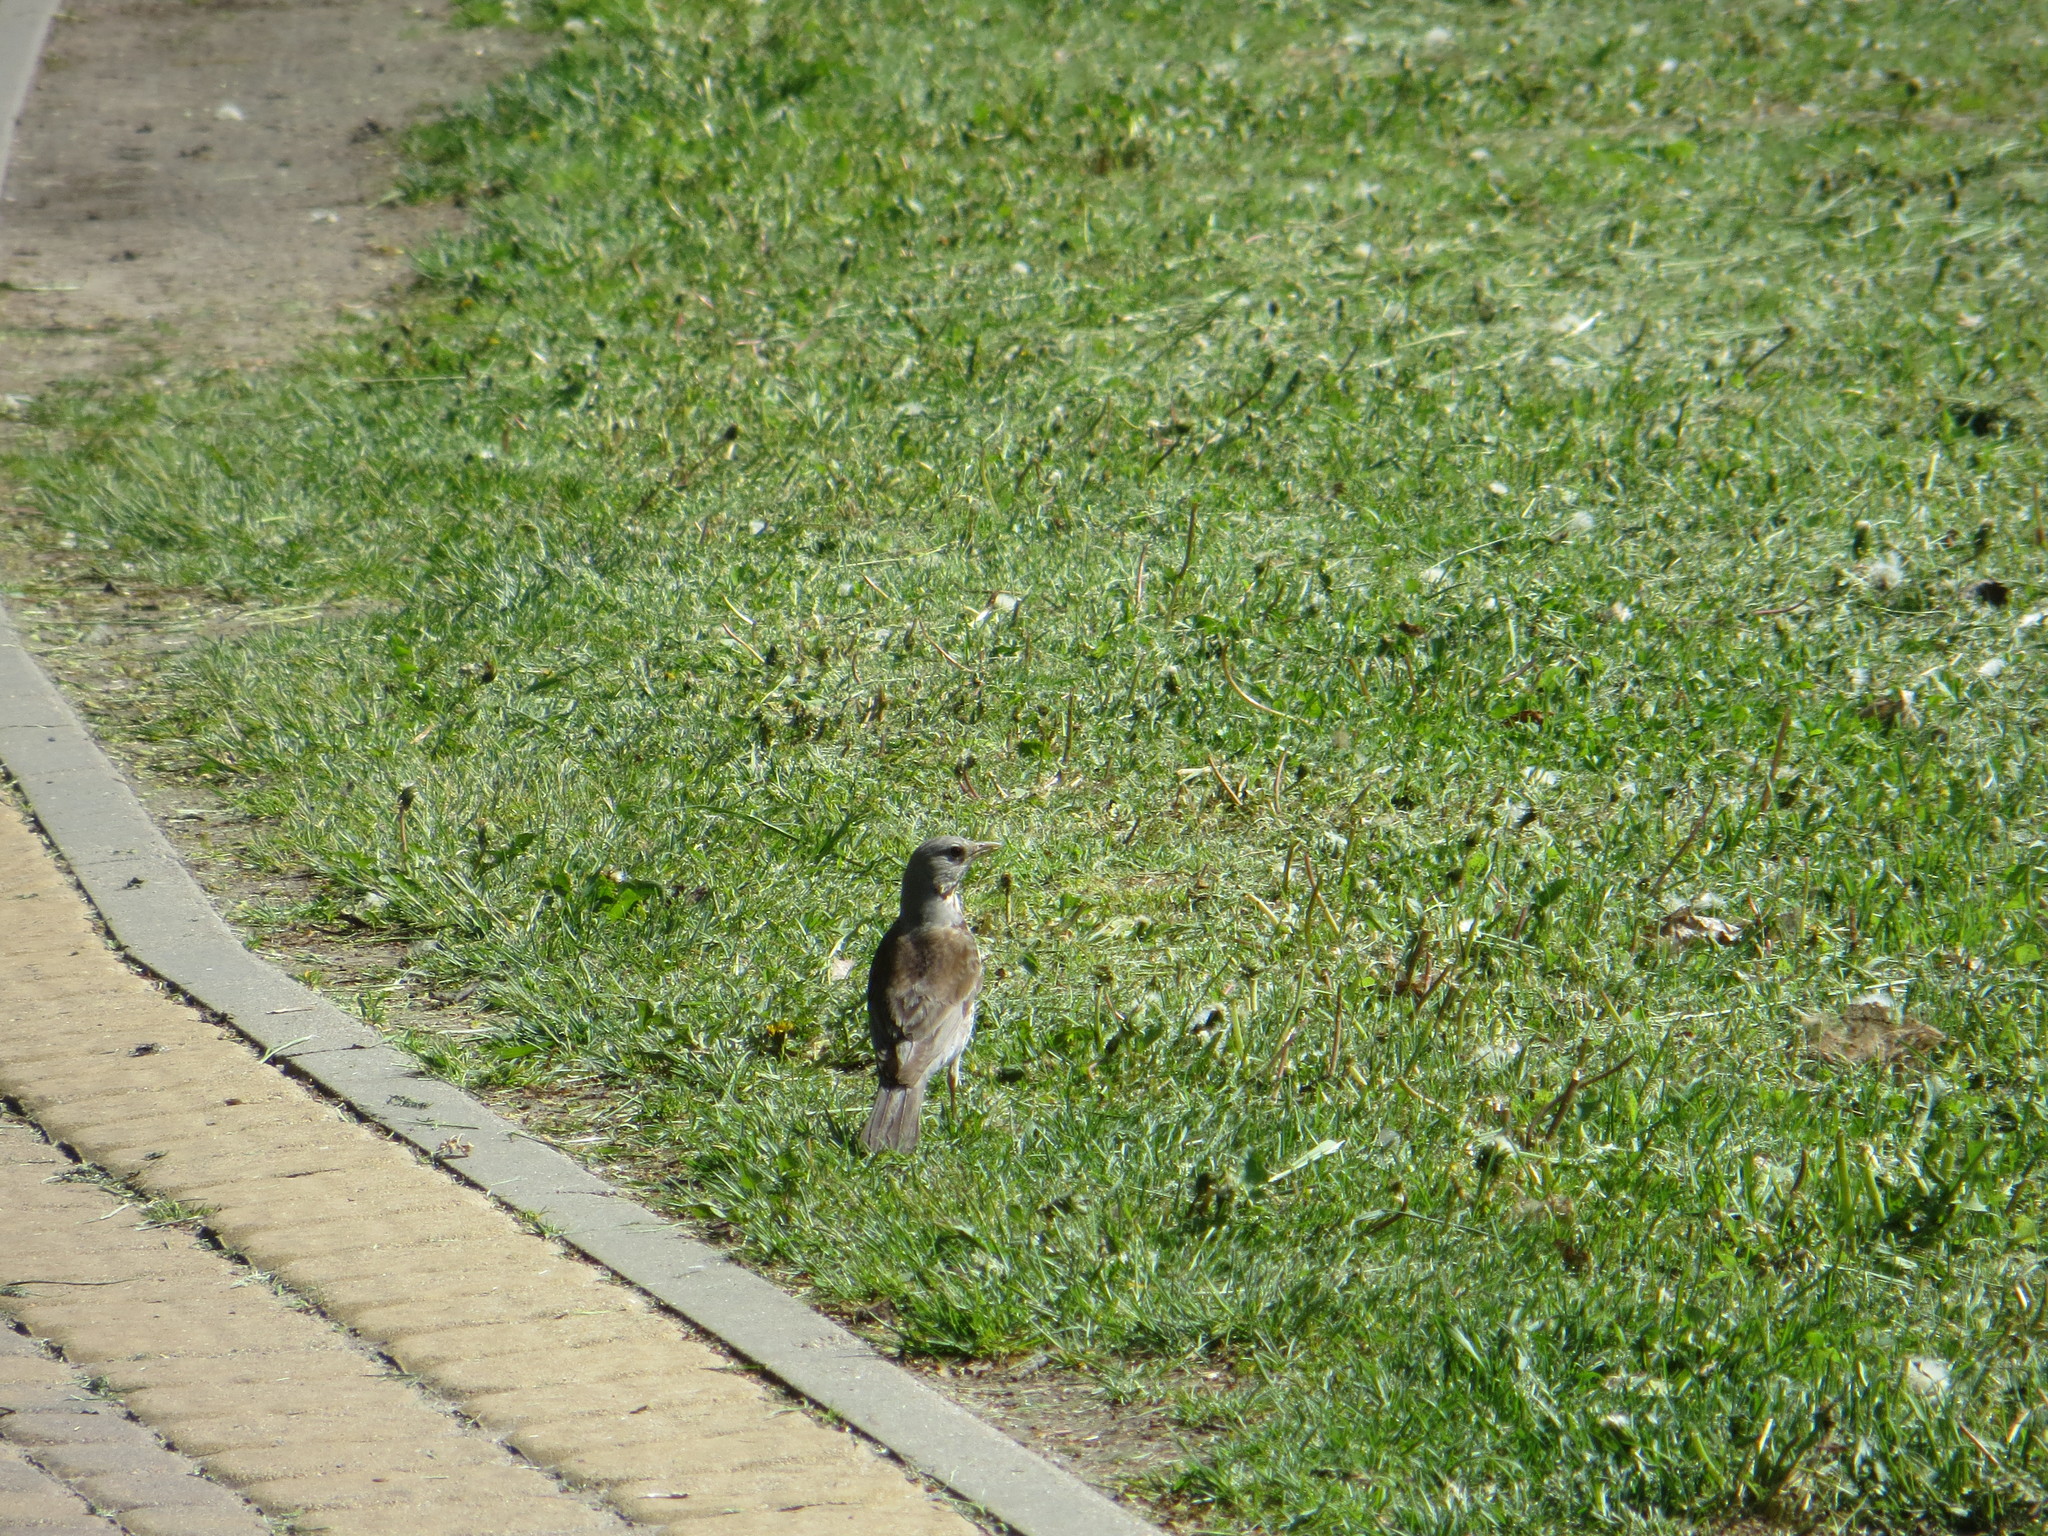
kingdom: Animalia
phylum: Chordata
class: Aves
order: Passeriformes
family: Turdidae
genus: Turdus
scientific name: Turdus pilaris
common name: Fieldfare
